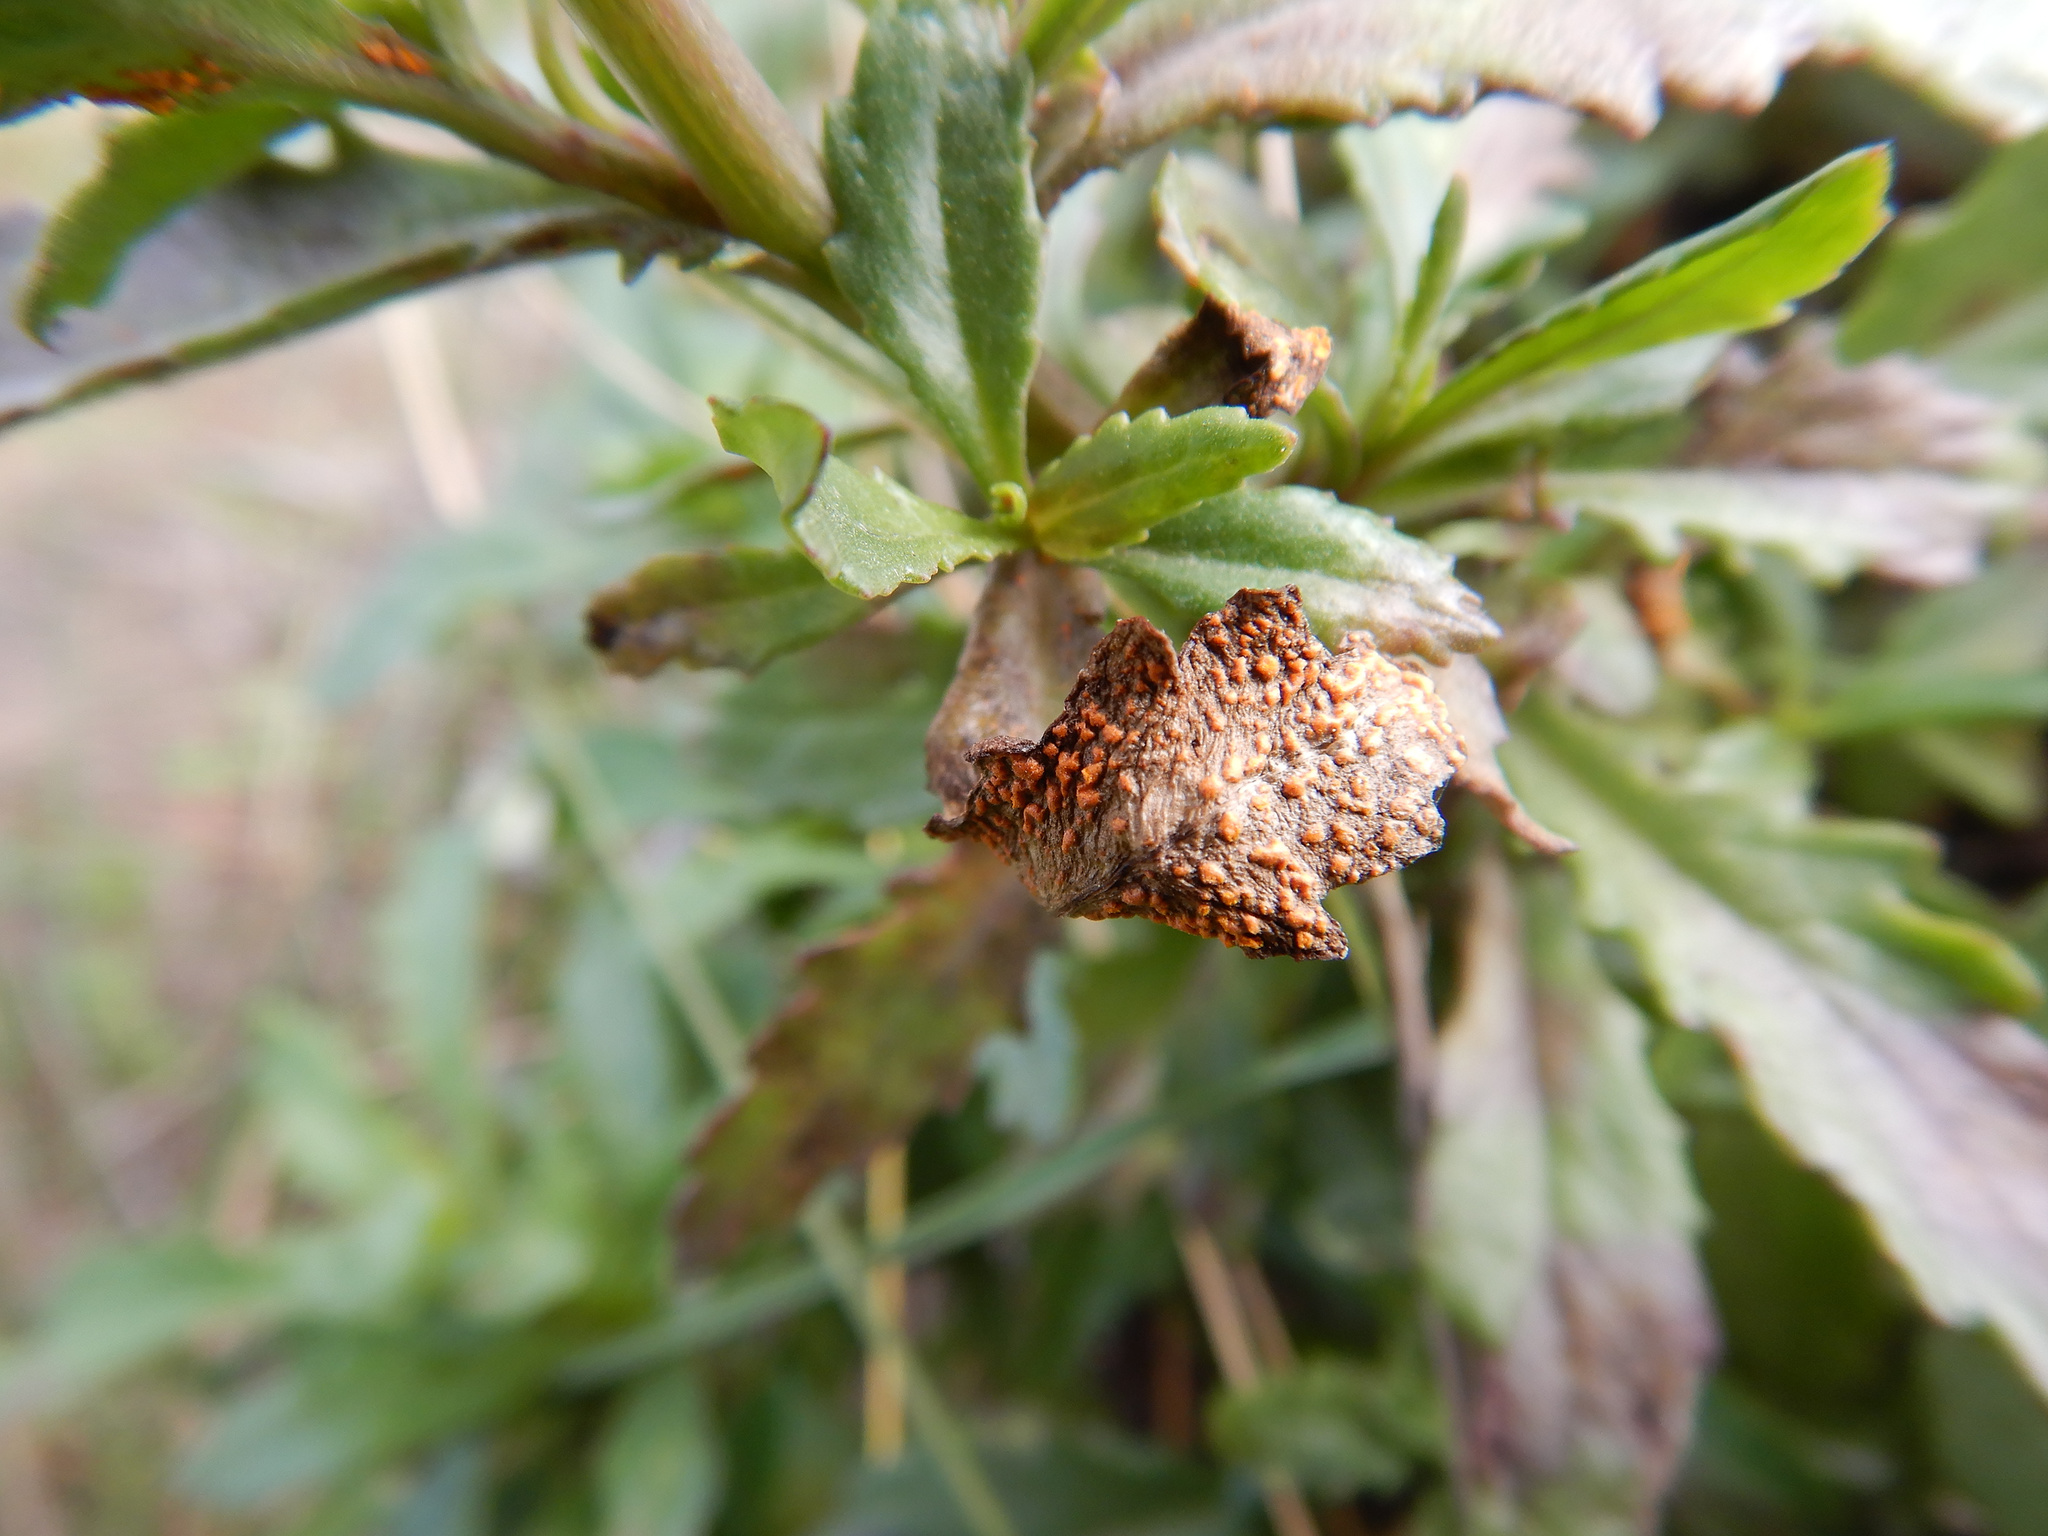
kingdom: Fungi
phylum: Basidiomycota
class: Pucciniomycetes
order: Pucciniales
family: Coleosporiaceae
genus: Coleosporium
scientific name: Coleosporium tussilaginis
